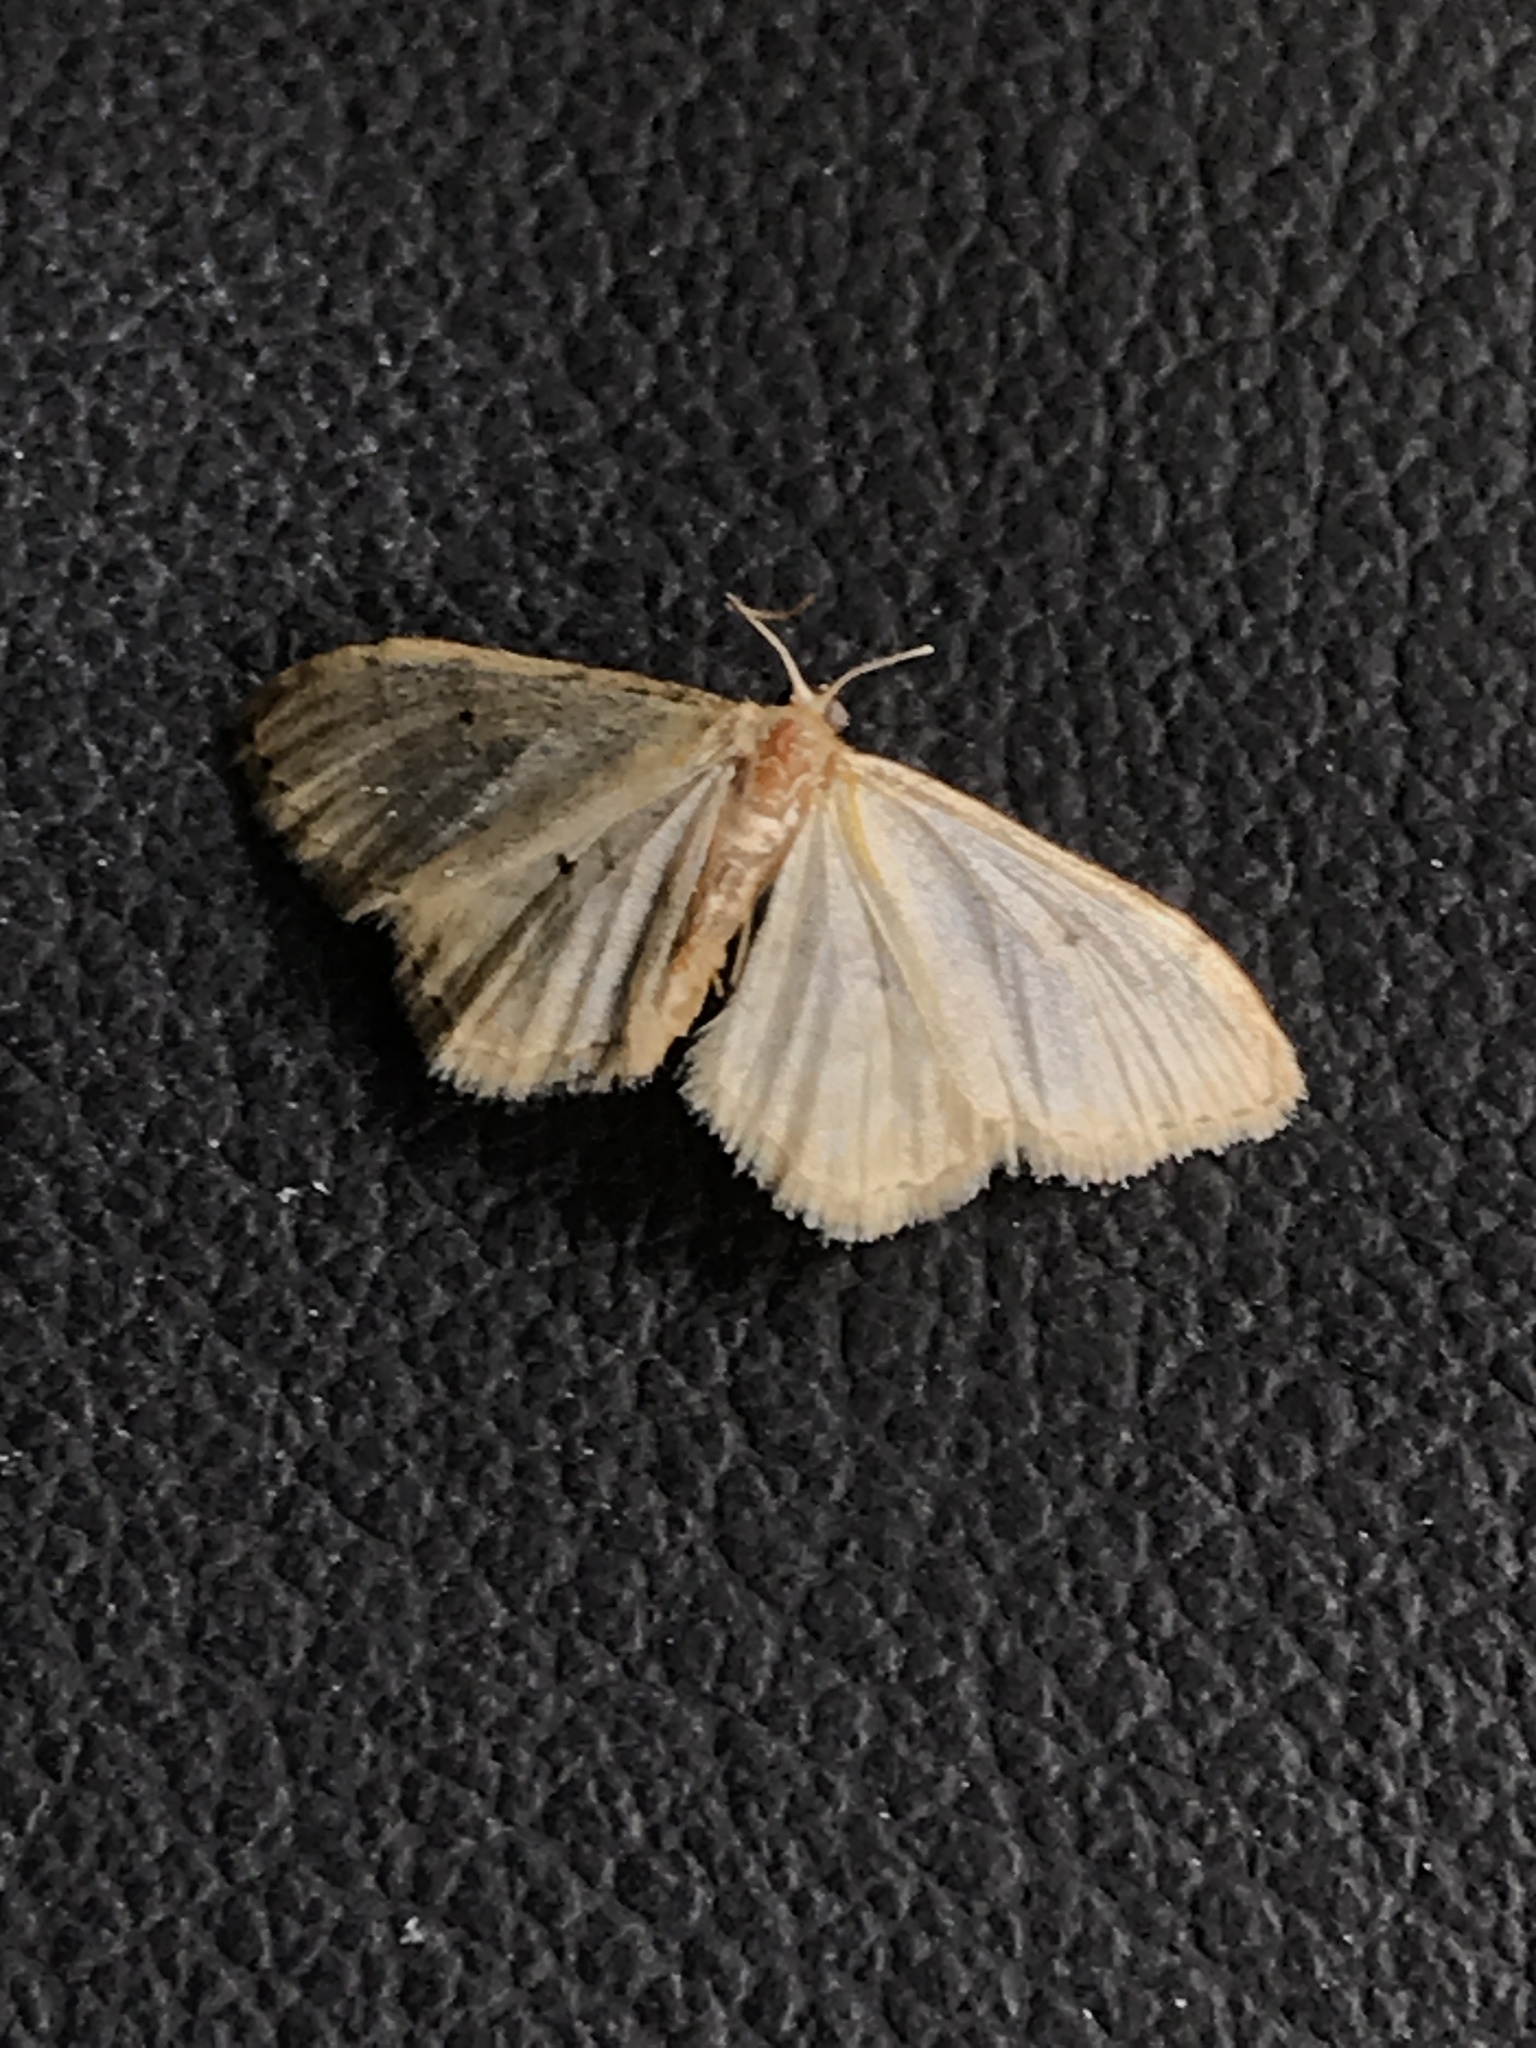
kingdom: Animalia
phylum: Arthropoda
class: Insecta
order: Lepidoptera
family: Geometridae
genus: Idaea
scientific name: Idaea fuscovenosa
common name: Dwarf cream wave
